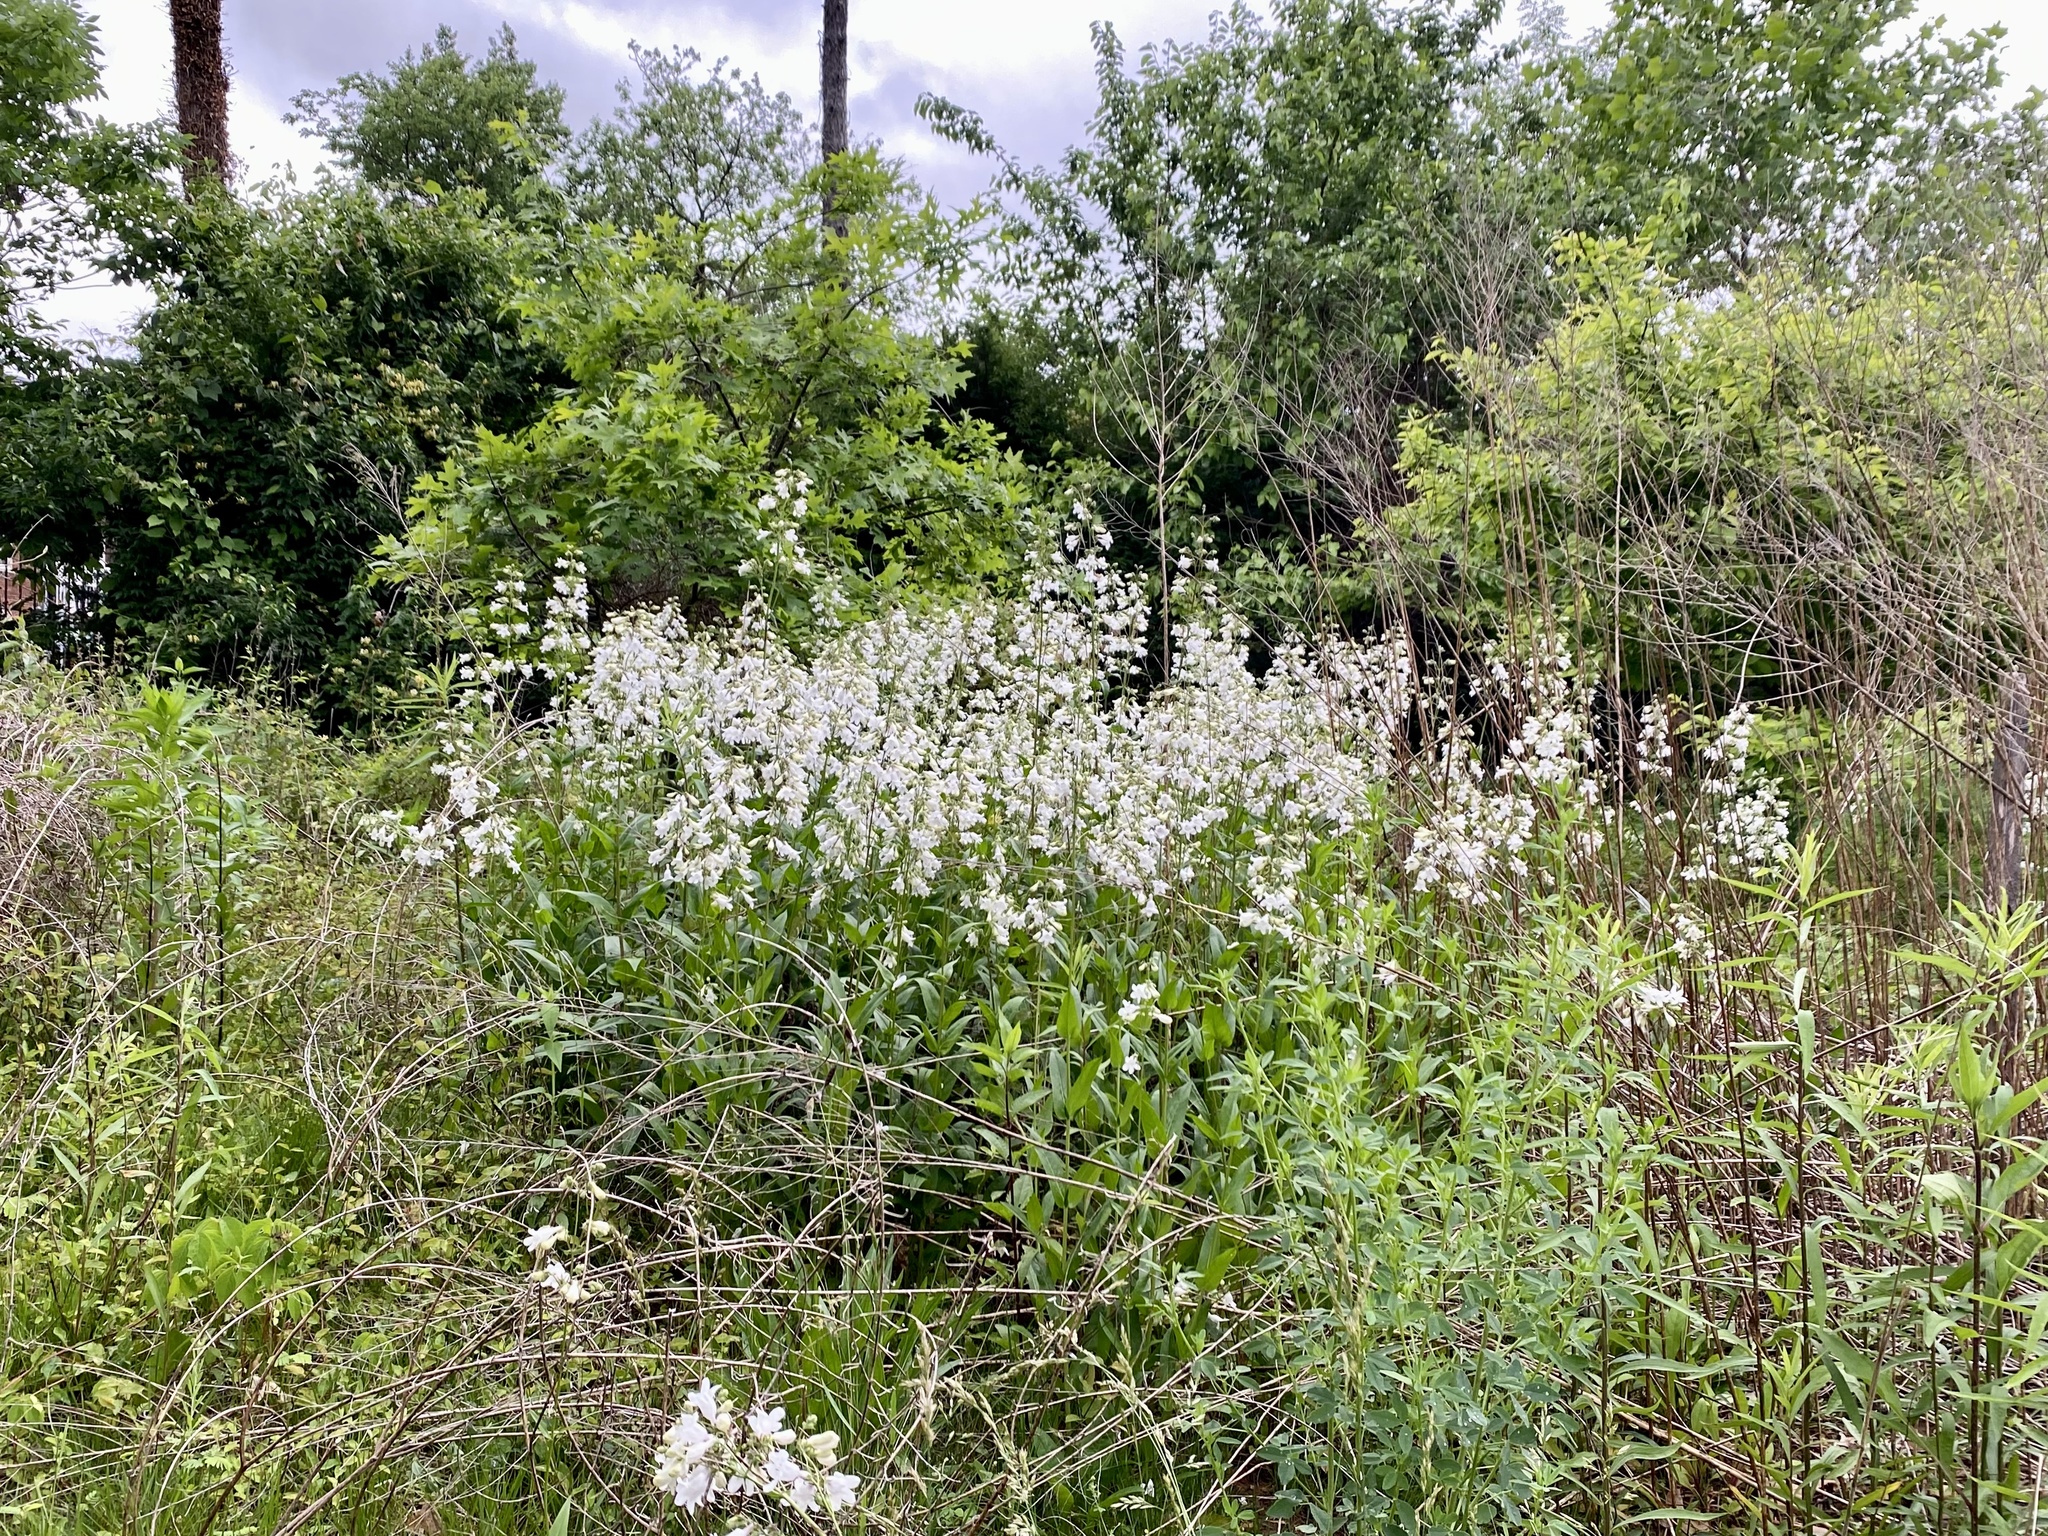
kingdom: Plantae
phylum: Tracheophyta
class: Magnoliopsida
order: Lamiales
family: Plantaginaceae
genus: Penstemon
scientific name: Penstemon digitalis
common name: Foxglove beardtongue
